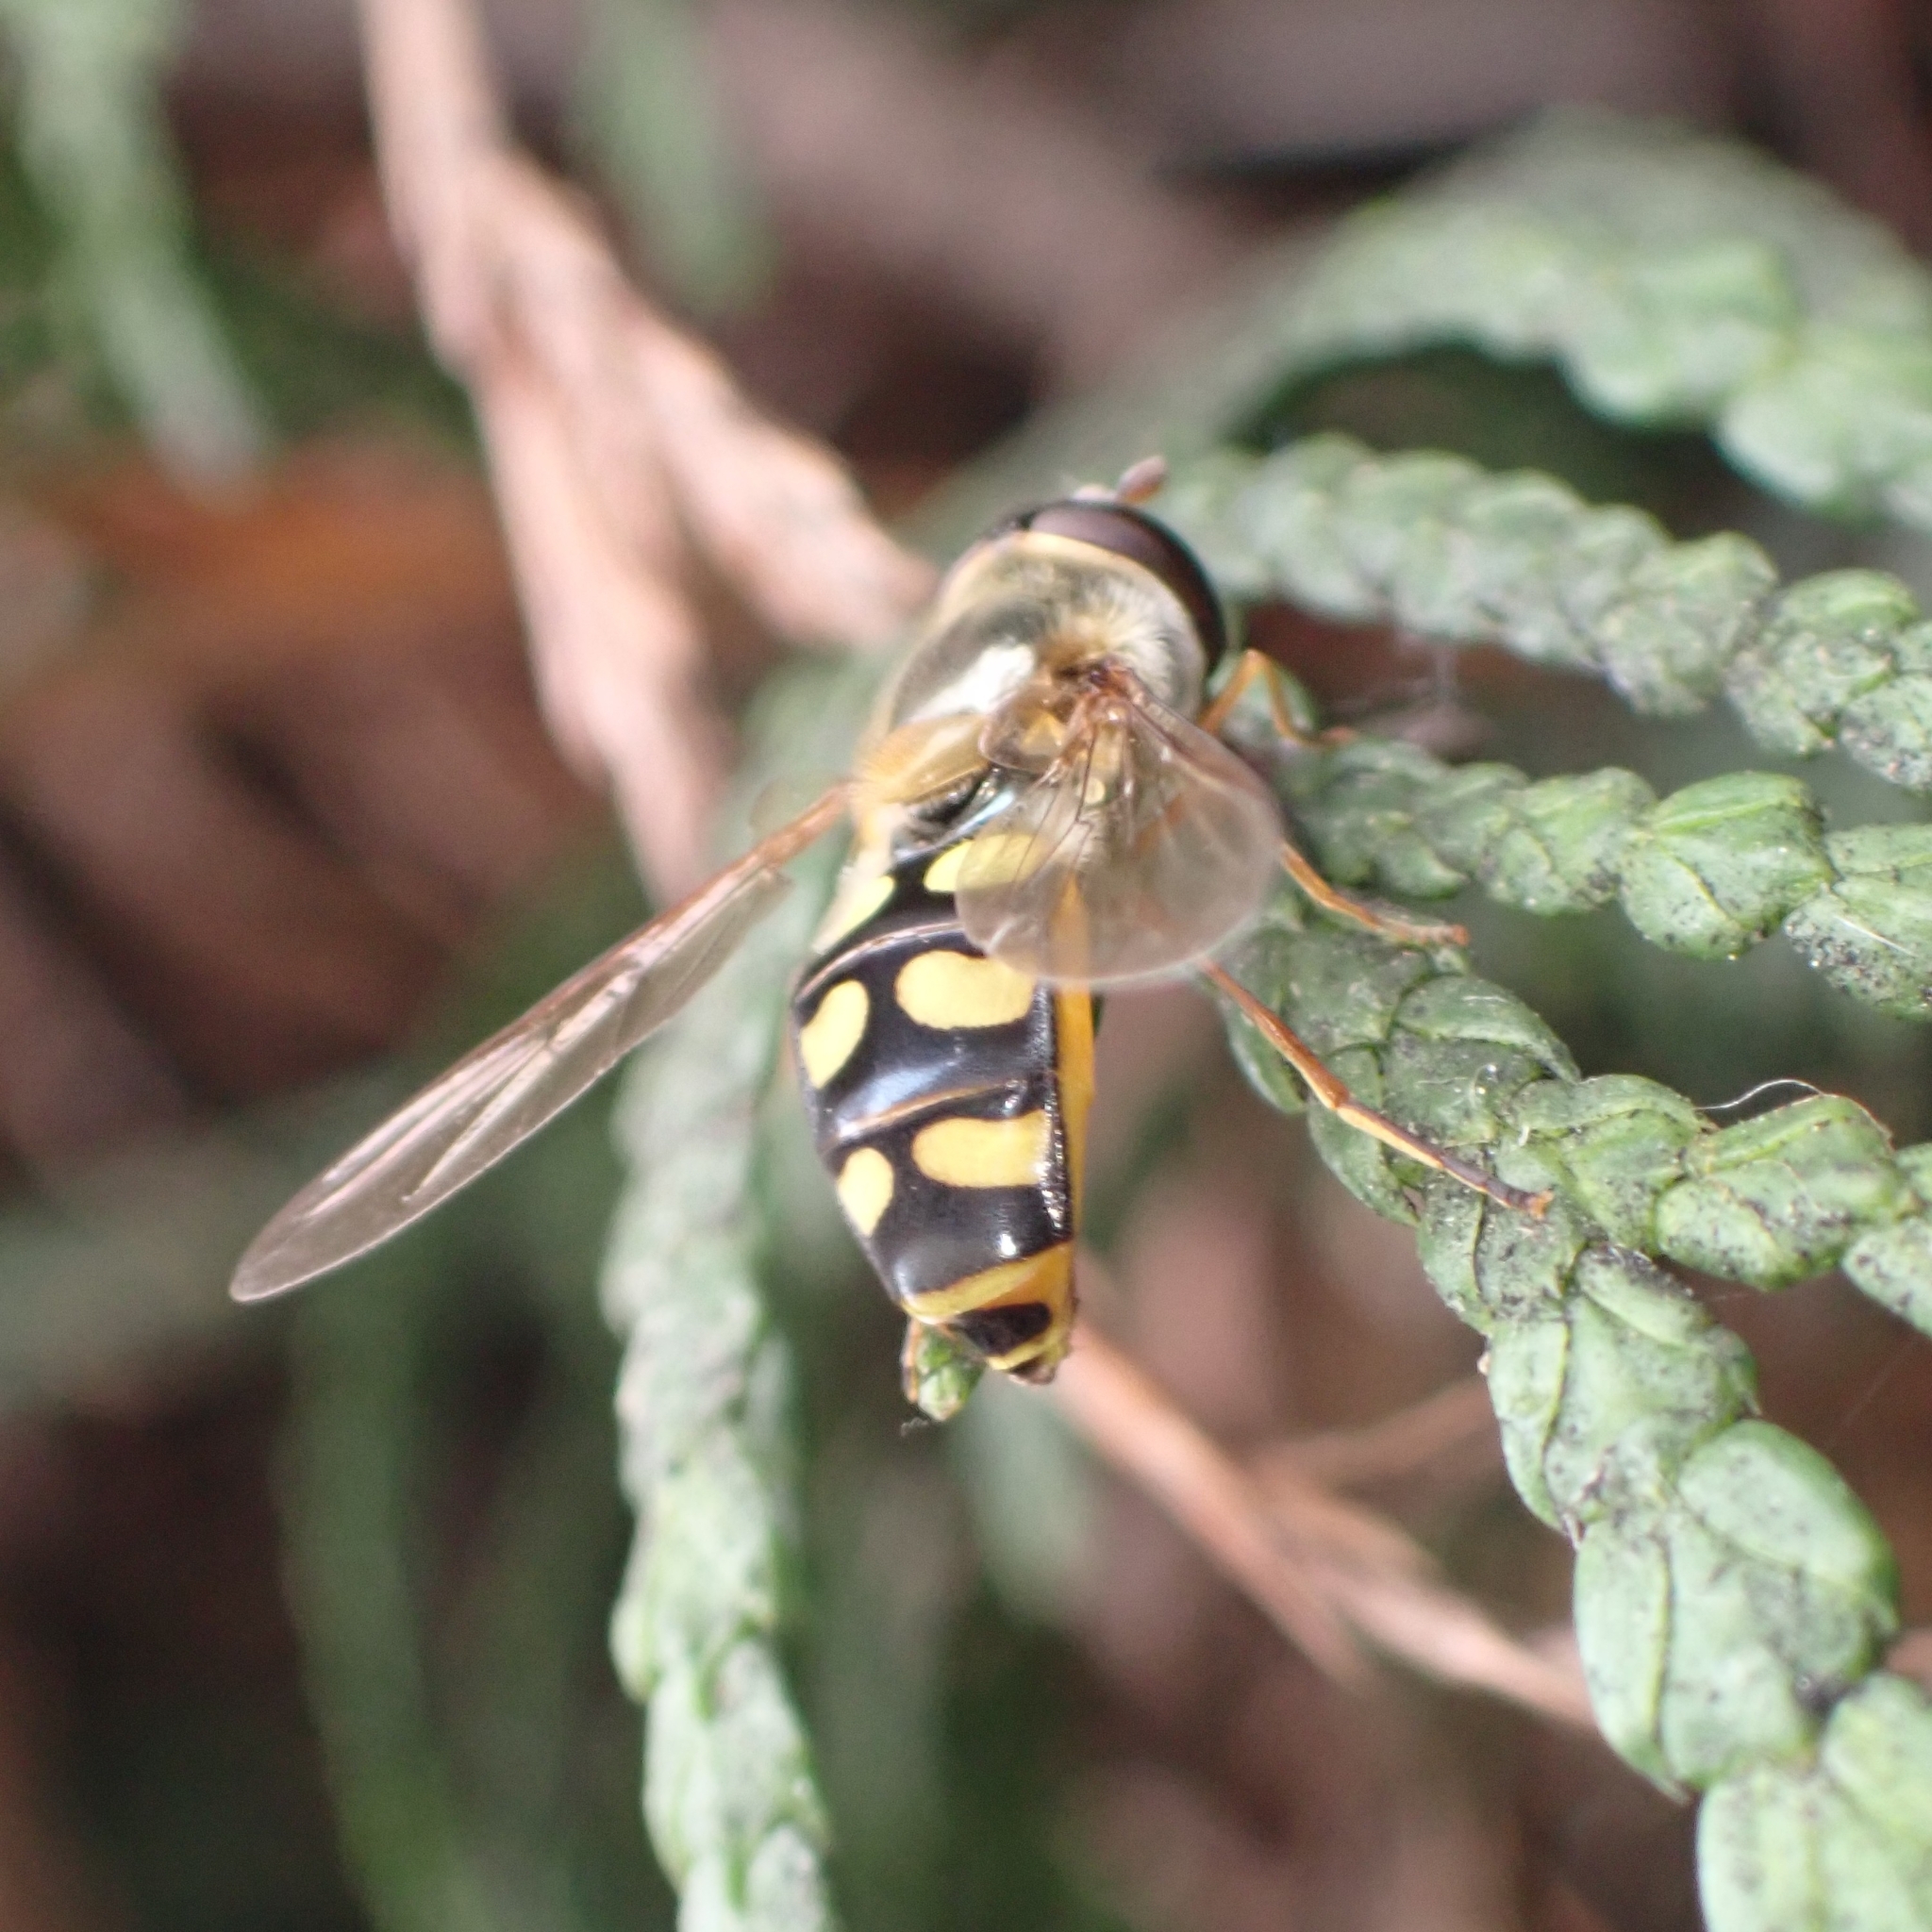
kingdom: Animalia
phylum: Arthropoda
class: Insecta
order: Diptera
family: Syrphidae
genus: Eupeodes
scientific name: Eupeodes luniger
